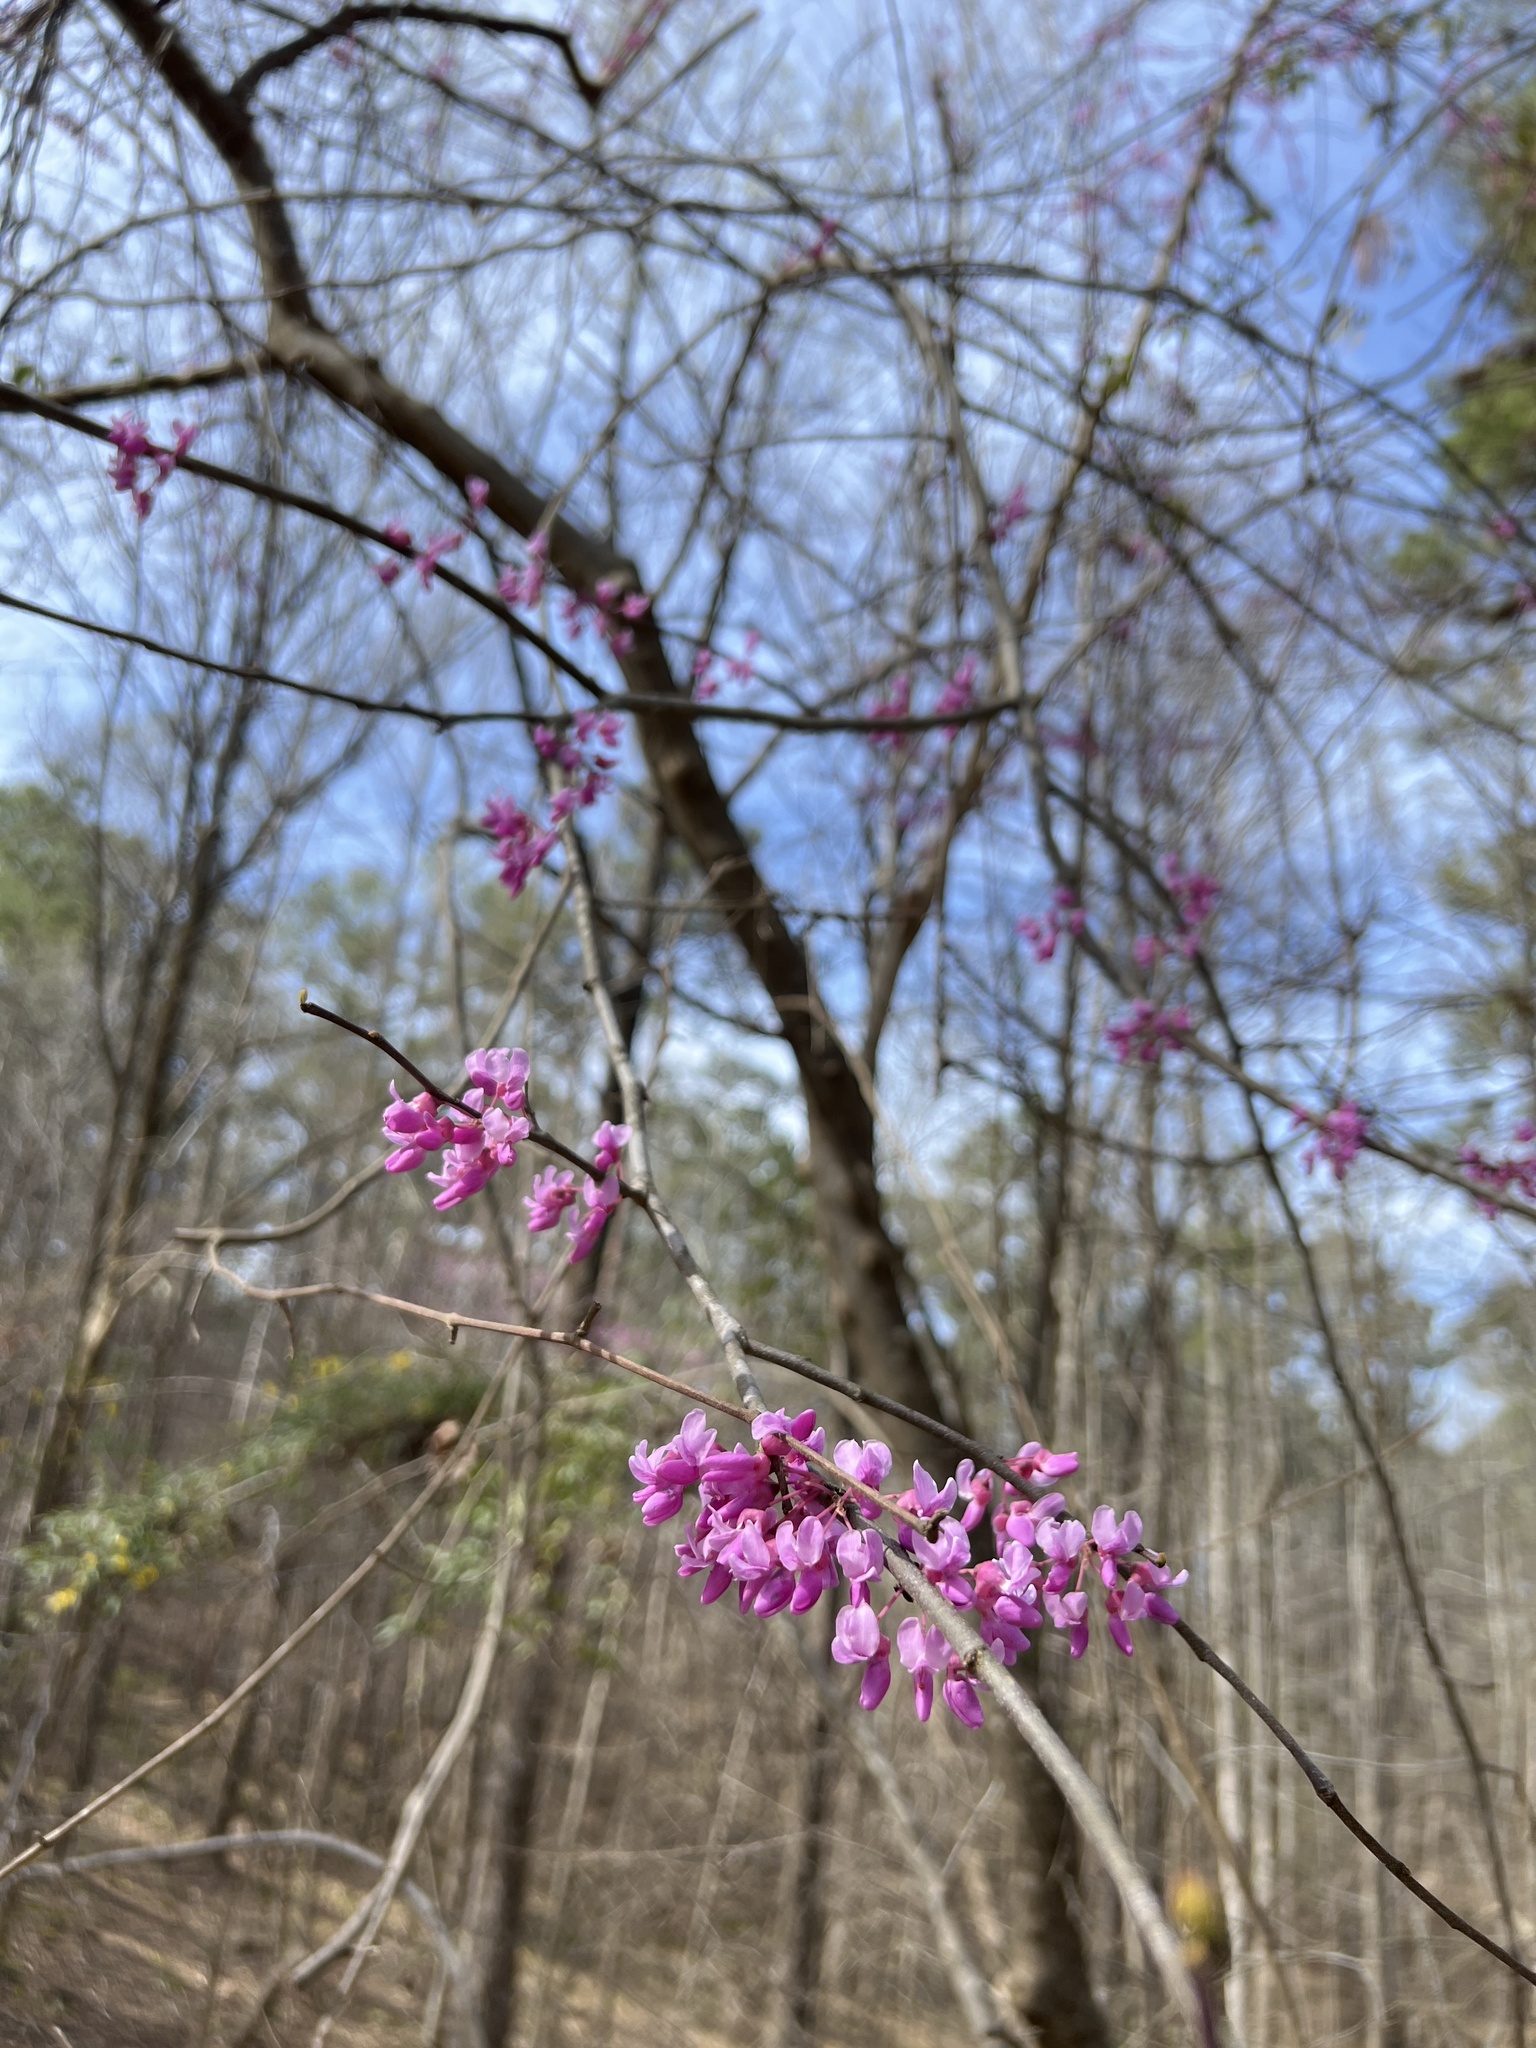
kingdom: Plantae
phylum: Tracheophyta
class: Magnoliopsida
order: Fabales
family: Fabaceae
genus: Cercis
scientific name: Cercis canadensis
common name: Eastern redbud
